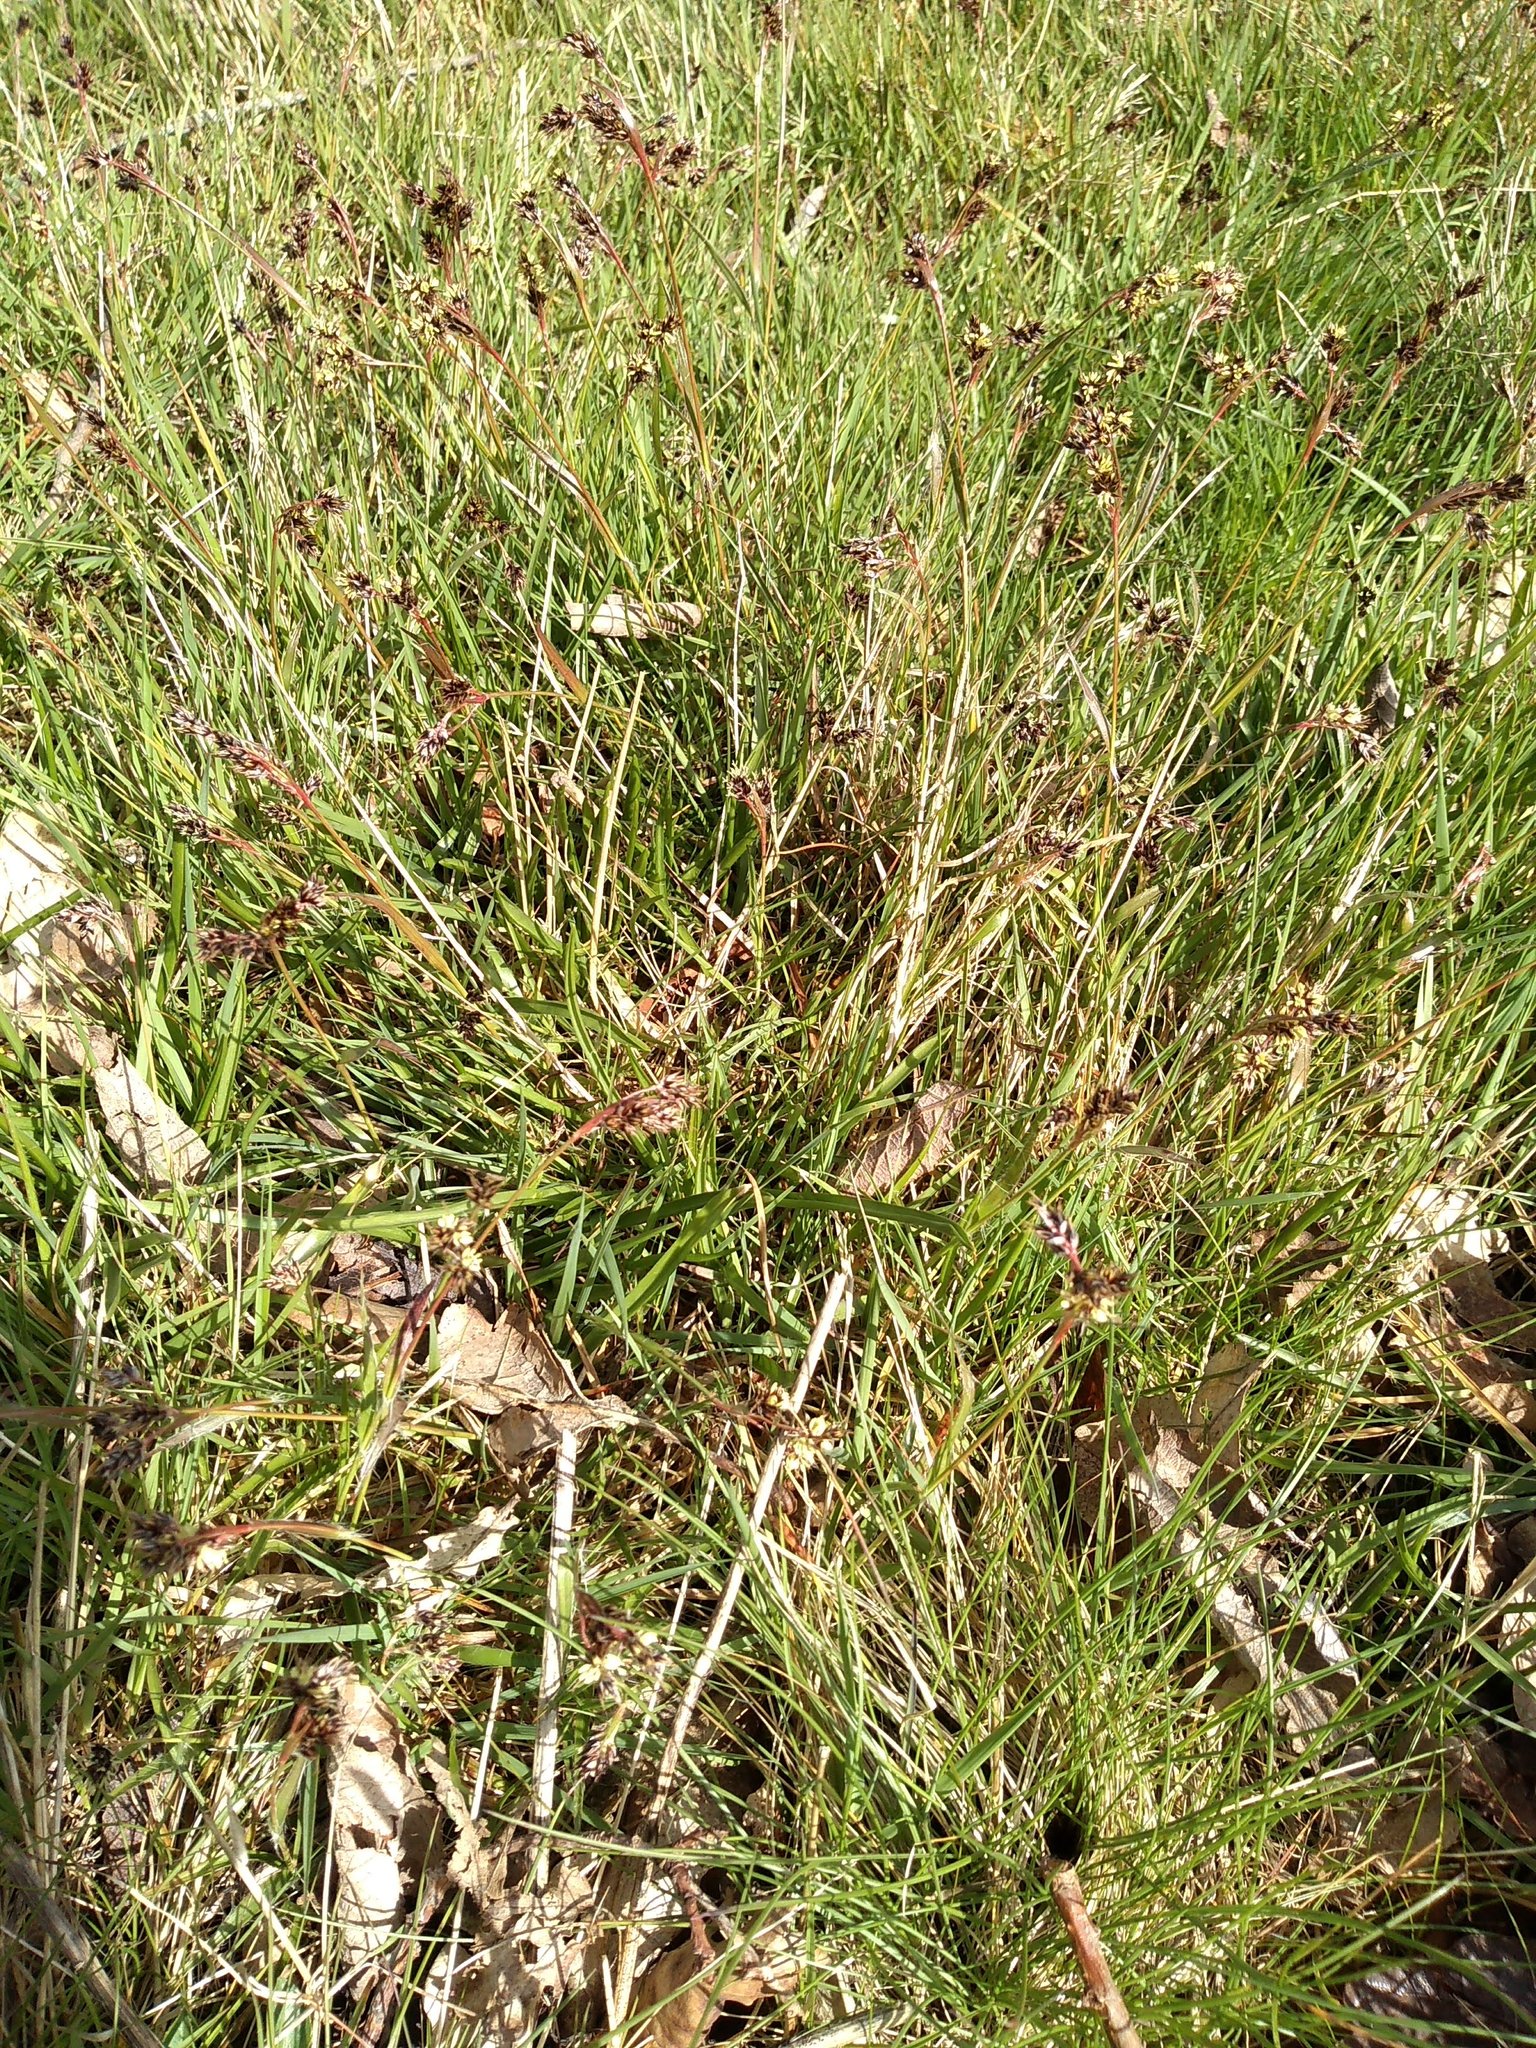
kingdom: Plantae
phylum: Tracheophyta
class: Liliopsida
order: Poales
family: Juncaceae
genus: Luzula
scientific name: Luzula campestris
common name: Field wood-rush
